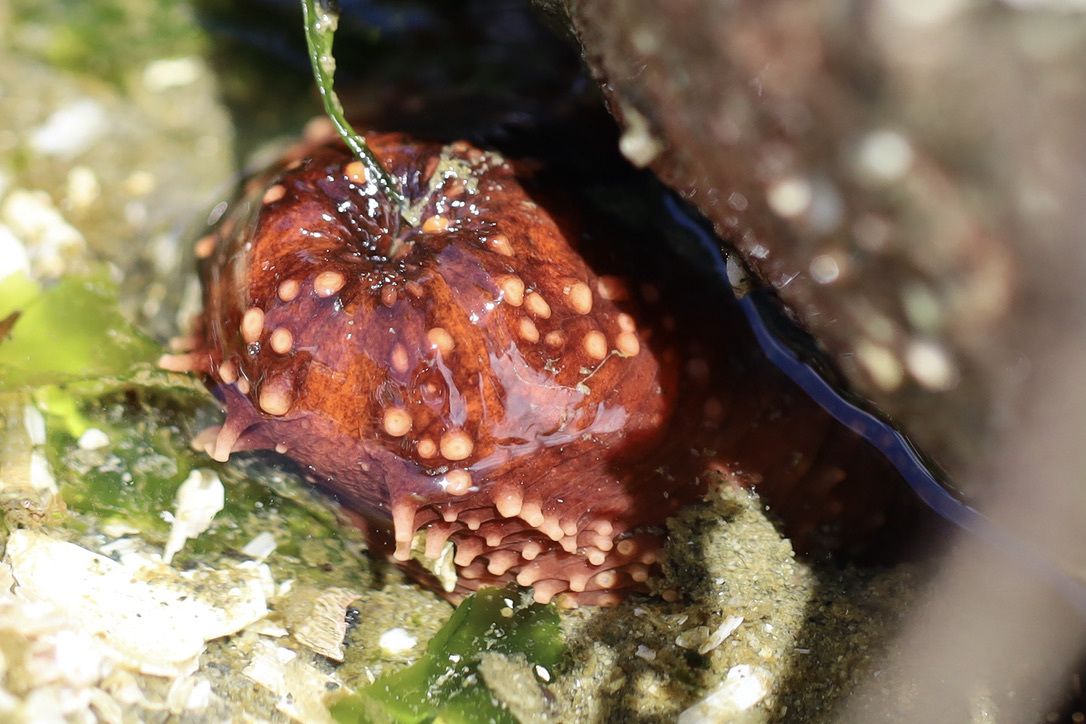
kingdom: Animalia
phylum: Echinodermata
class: Holothuroidea
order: Dendrochirotida
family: Cucumariidae
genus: Cucumaria
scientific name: Cucumaria miniata
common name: Orange sea cucumber
